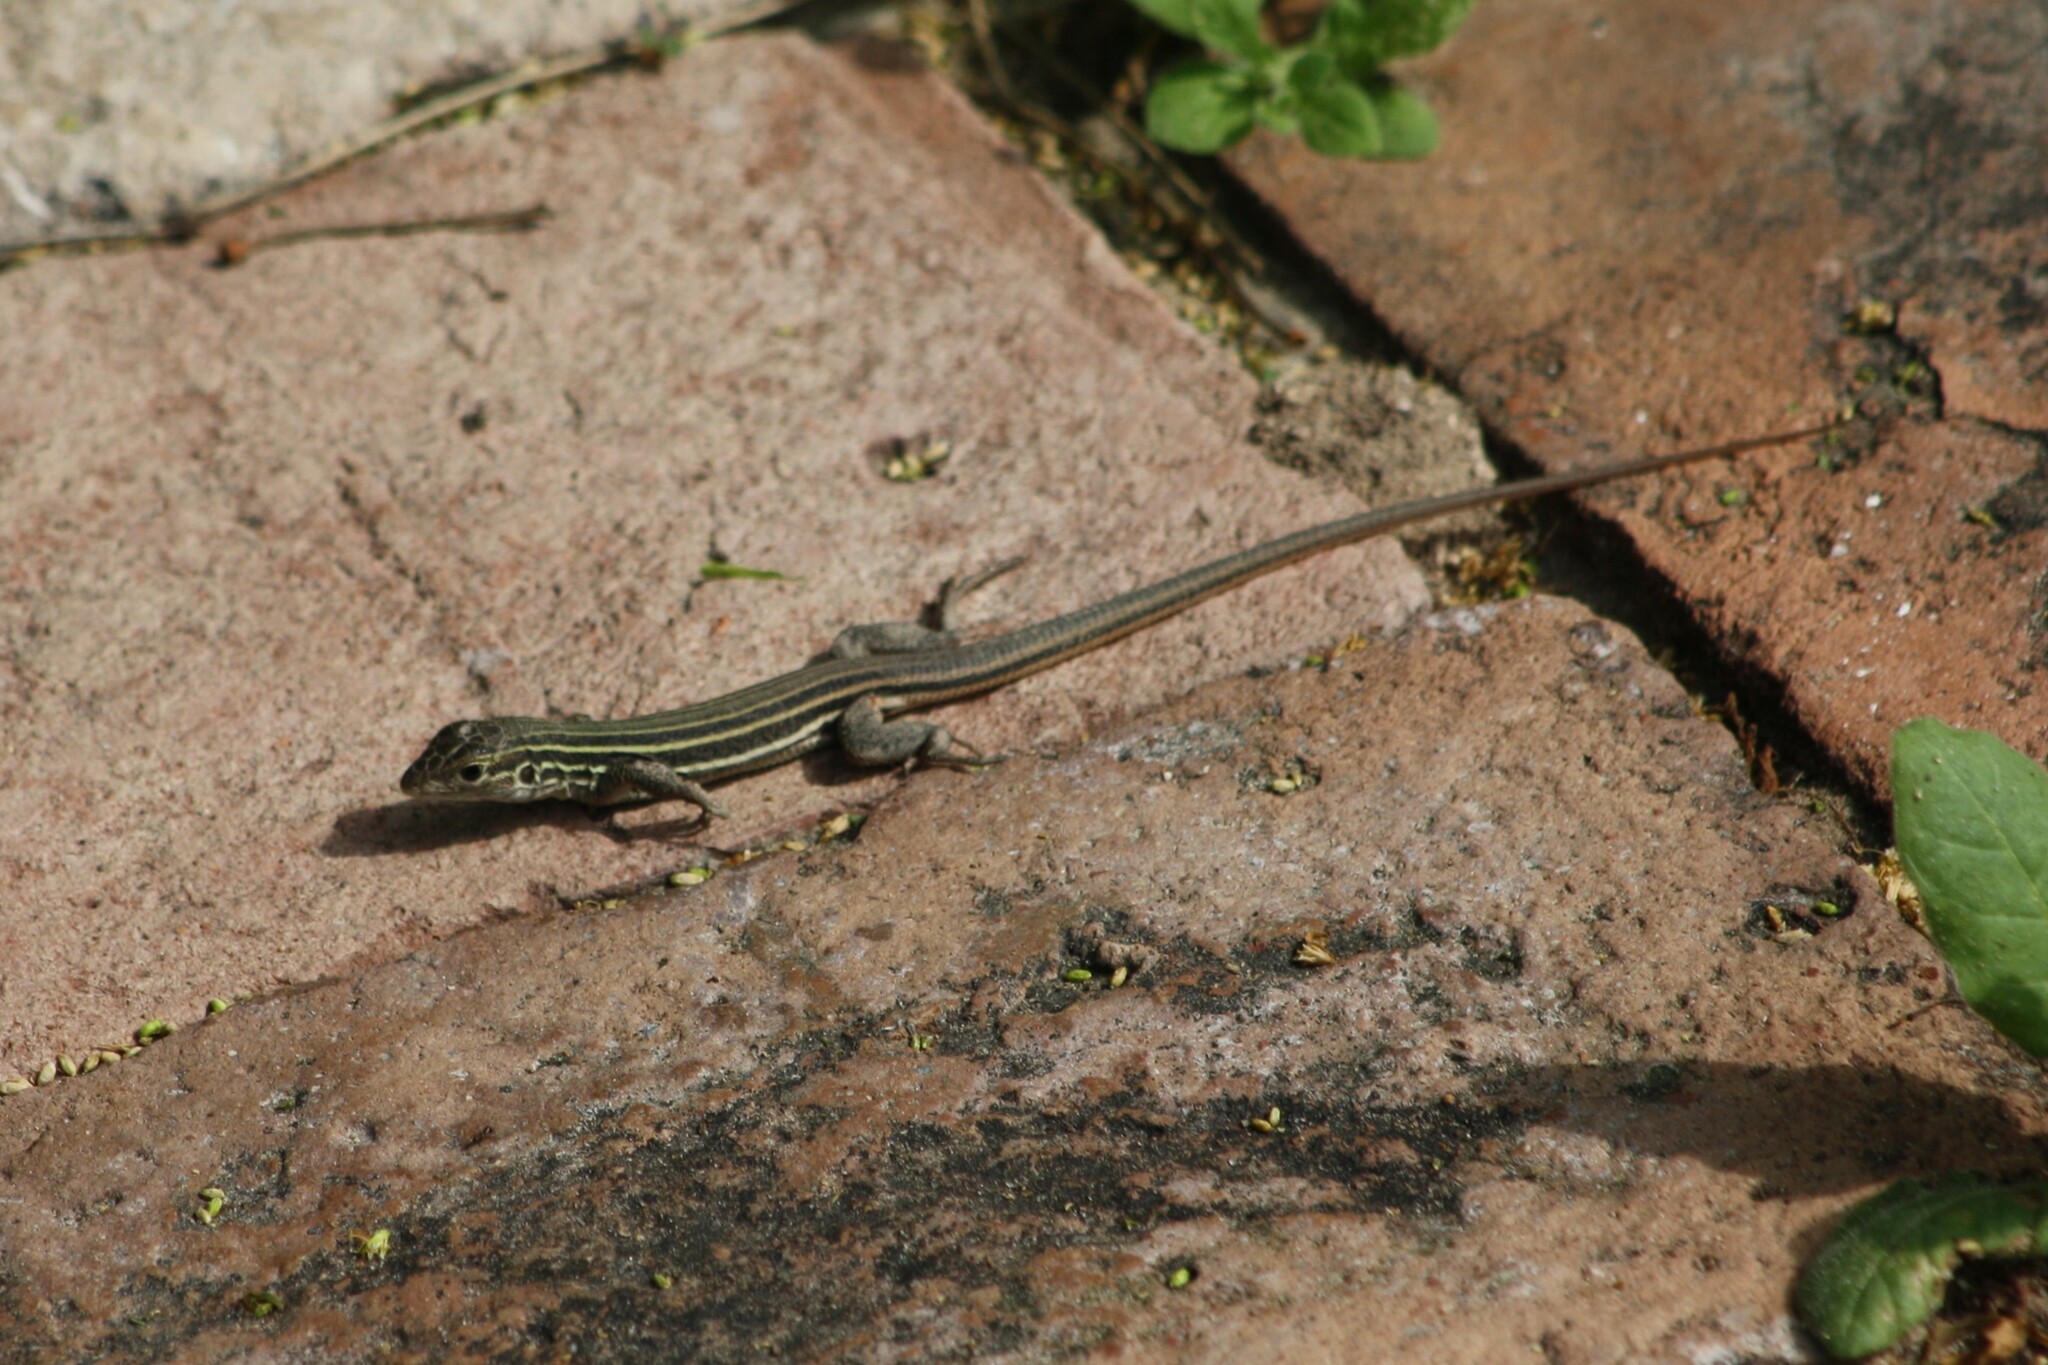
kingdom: Animalia
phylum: Chordata
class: Squamata
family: Teiidae
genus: Aspidoscelis
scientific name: Aspidoscelis gularis
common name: Eastern spotted whiptail
